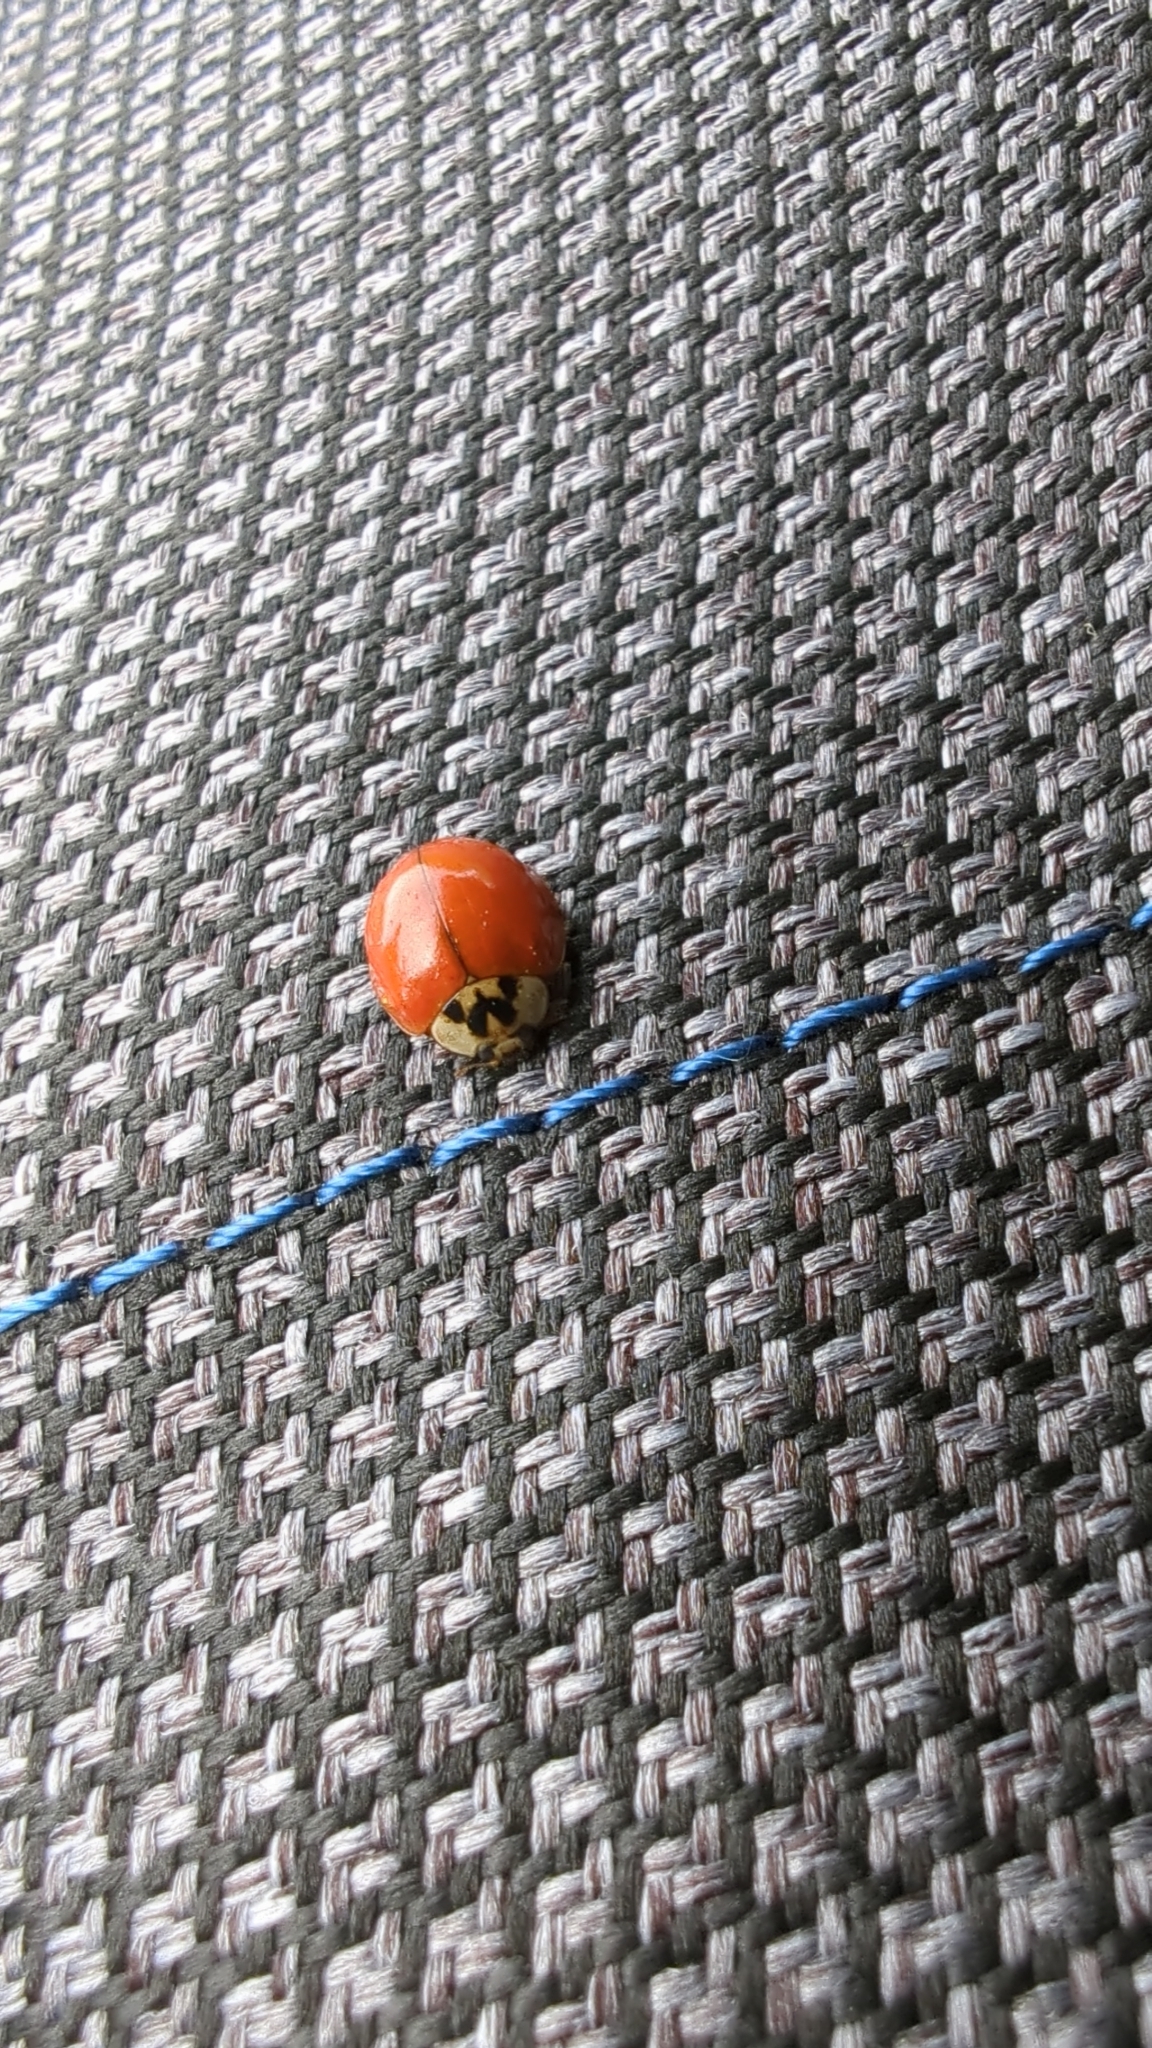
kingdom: Animalia
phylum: Arthropoda
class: Insecta
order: Coleoptera
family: Coccinellidae
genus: Harmonia
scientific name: Harmonia axyridis
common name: Harlequin ladybird
